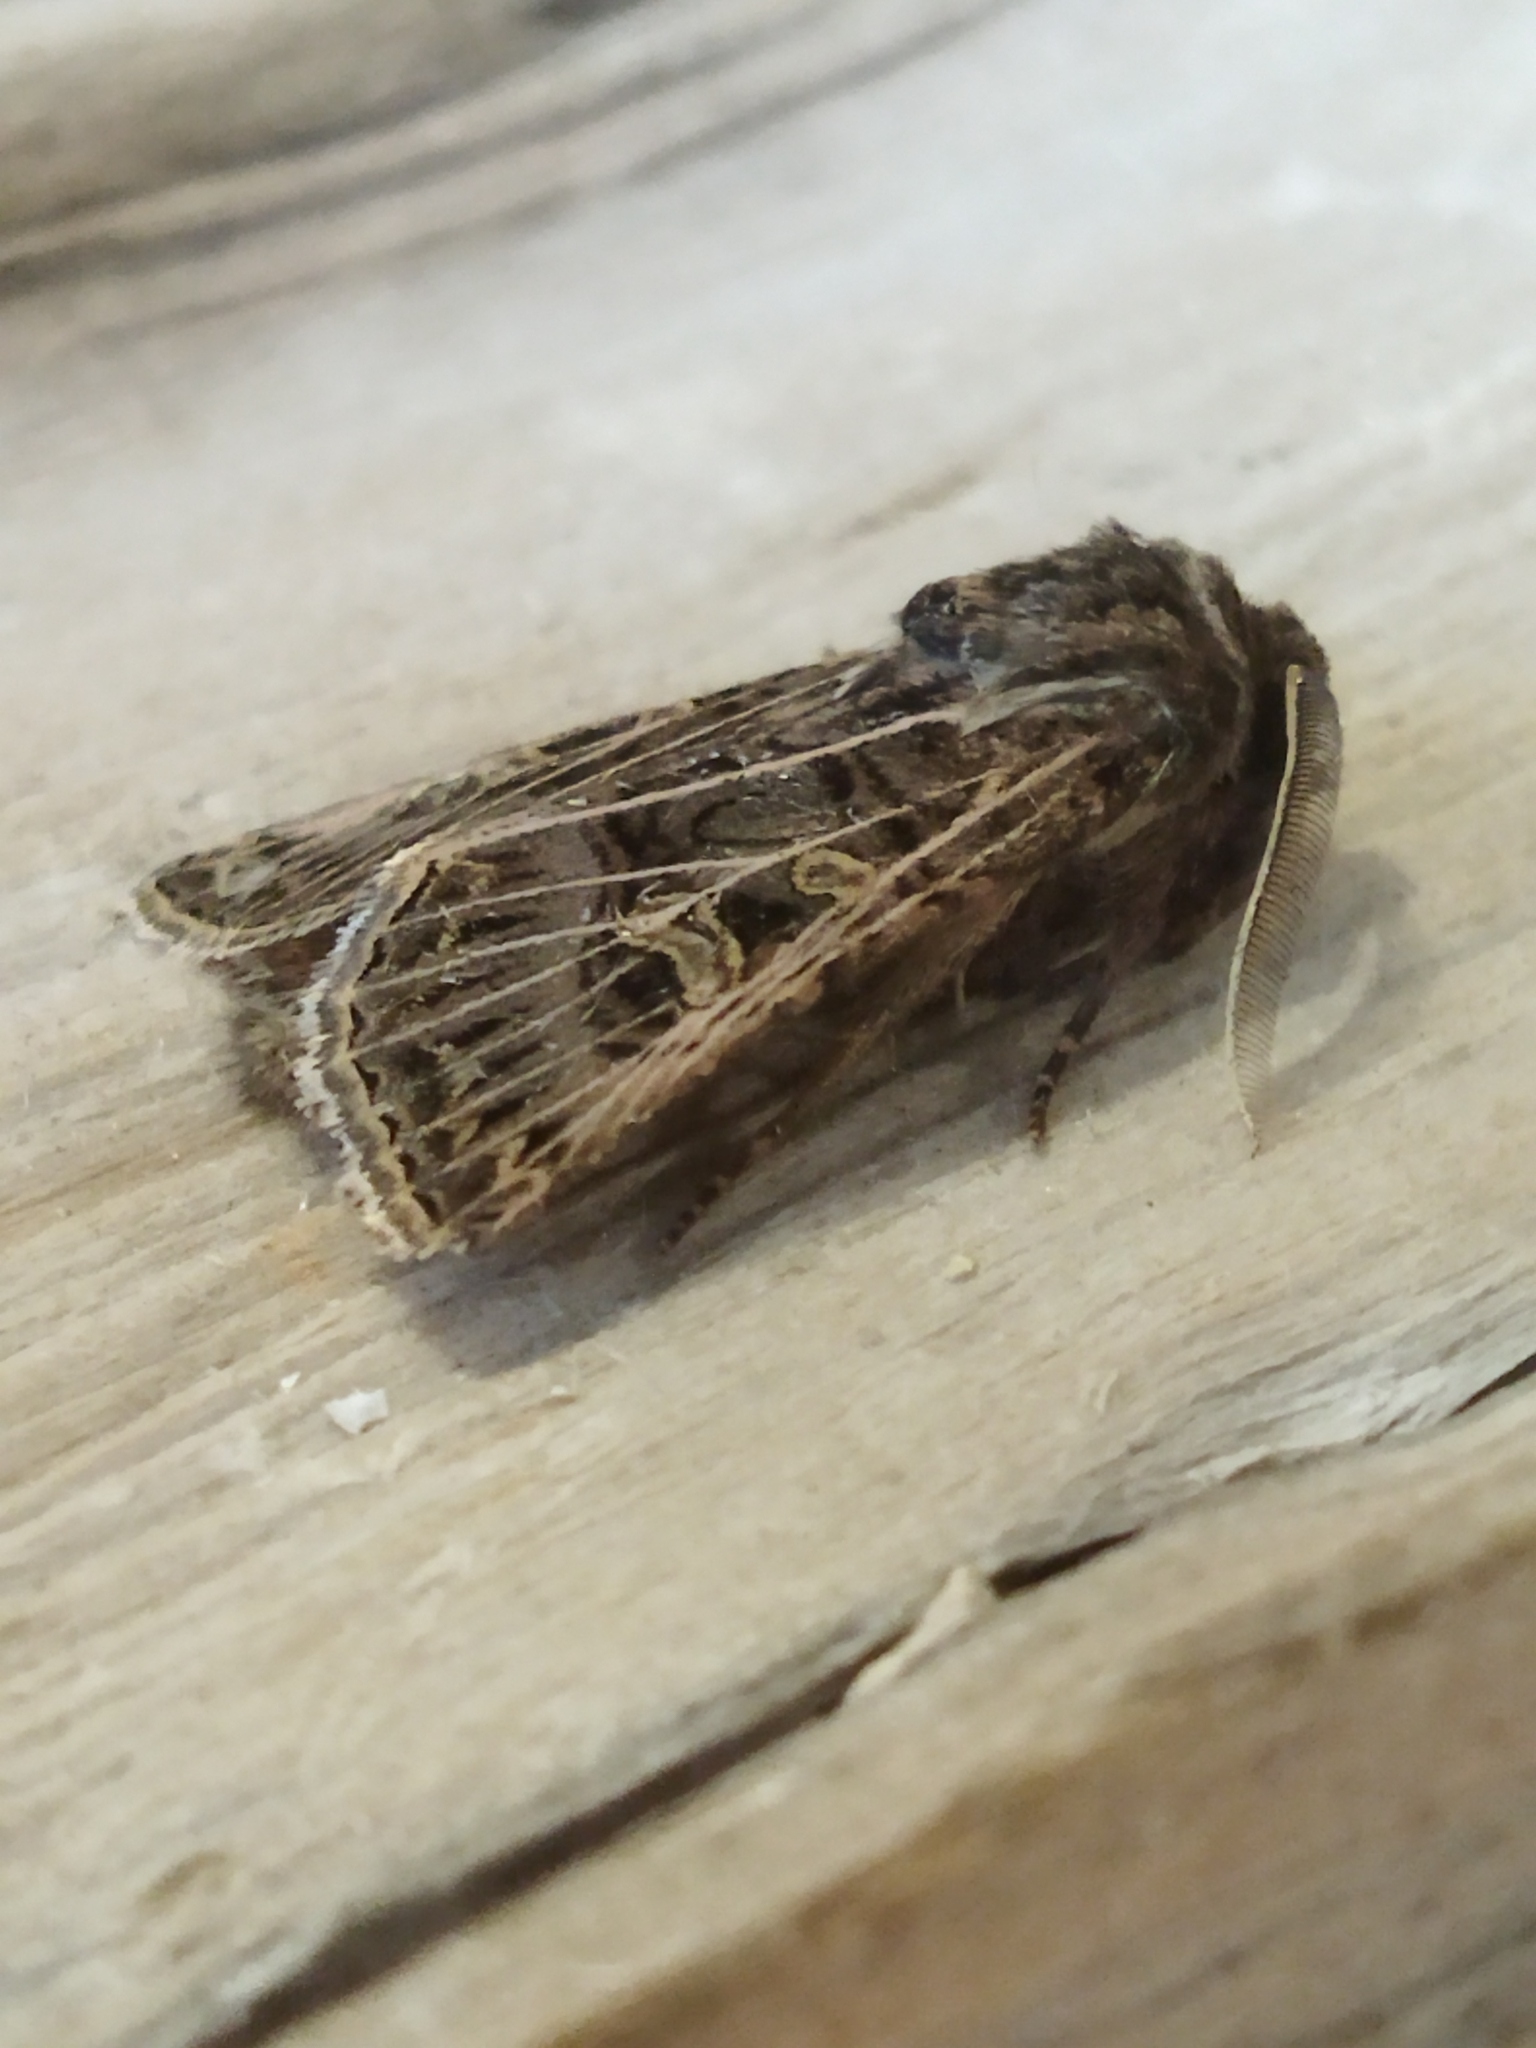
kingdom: Animalia
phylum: Arthropoda
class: Insecta
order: Lepidoptera
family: Noctuidae
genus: Tholera
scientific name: Tholera decimalis
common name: Feathered gothic
